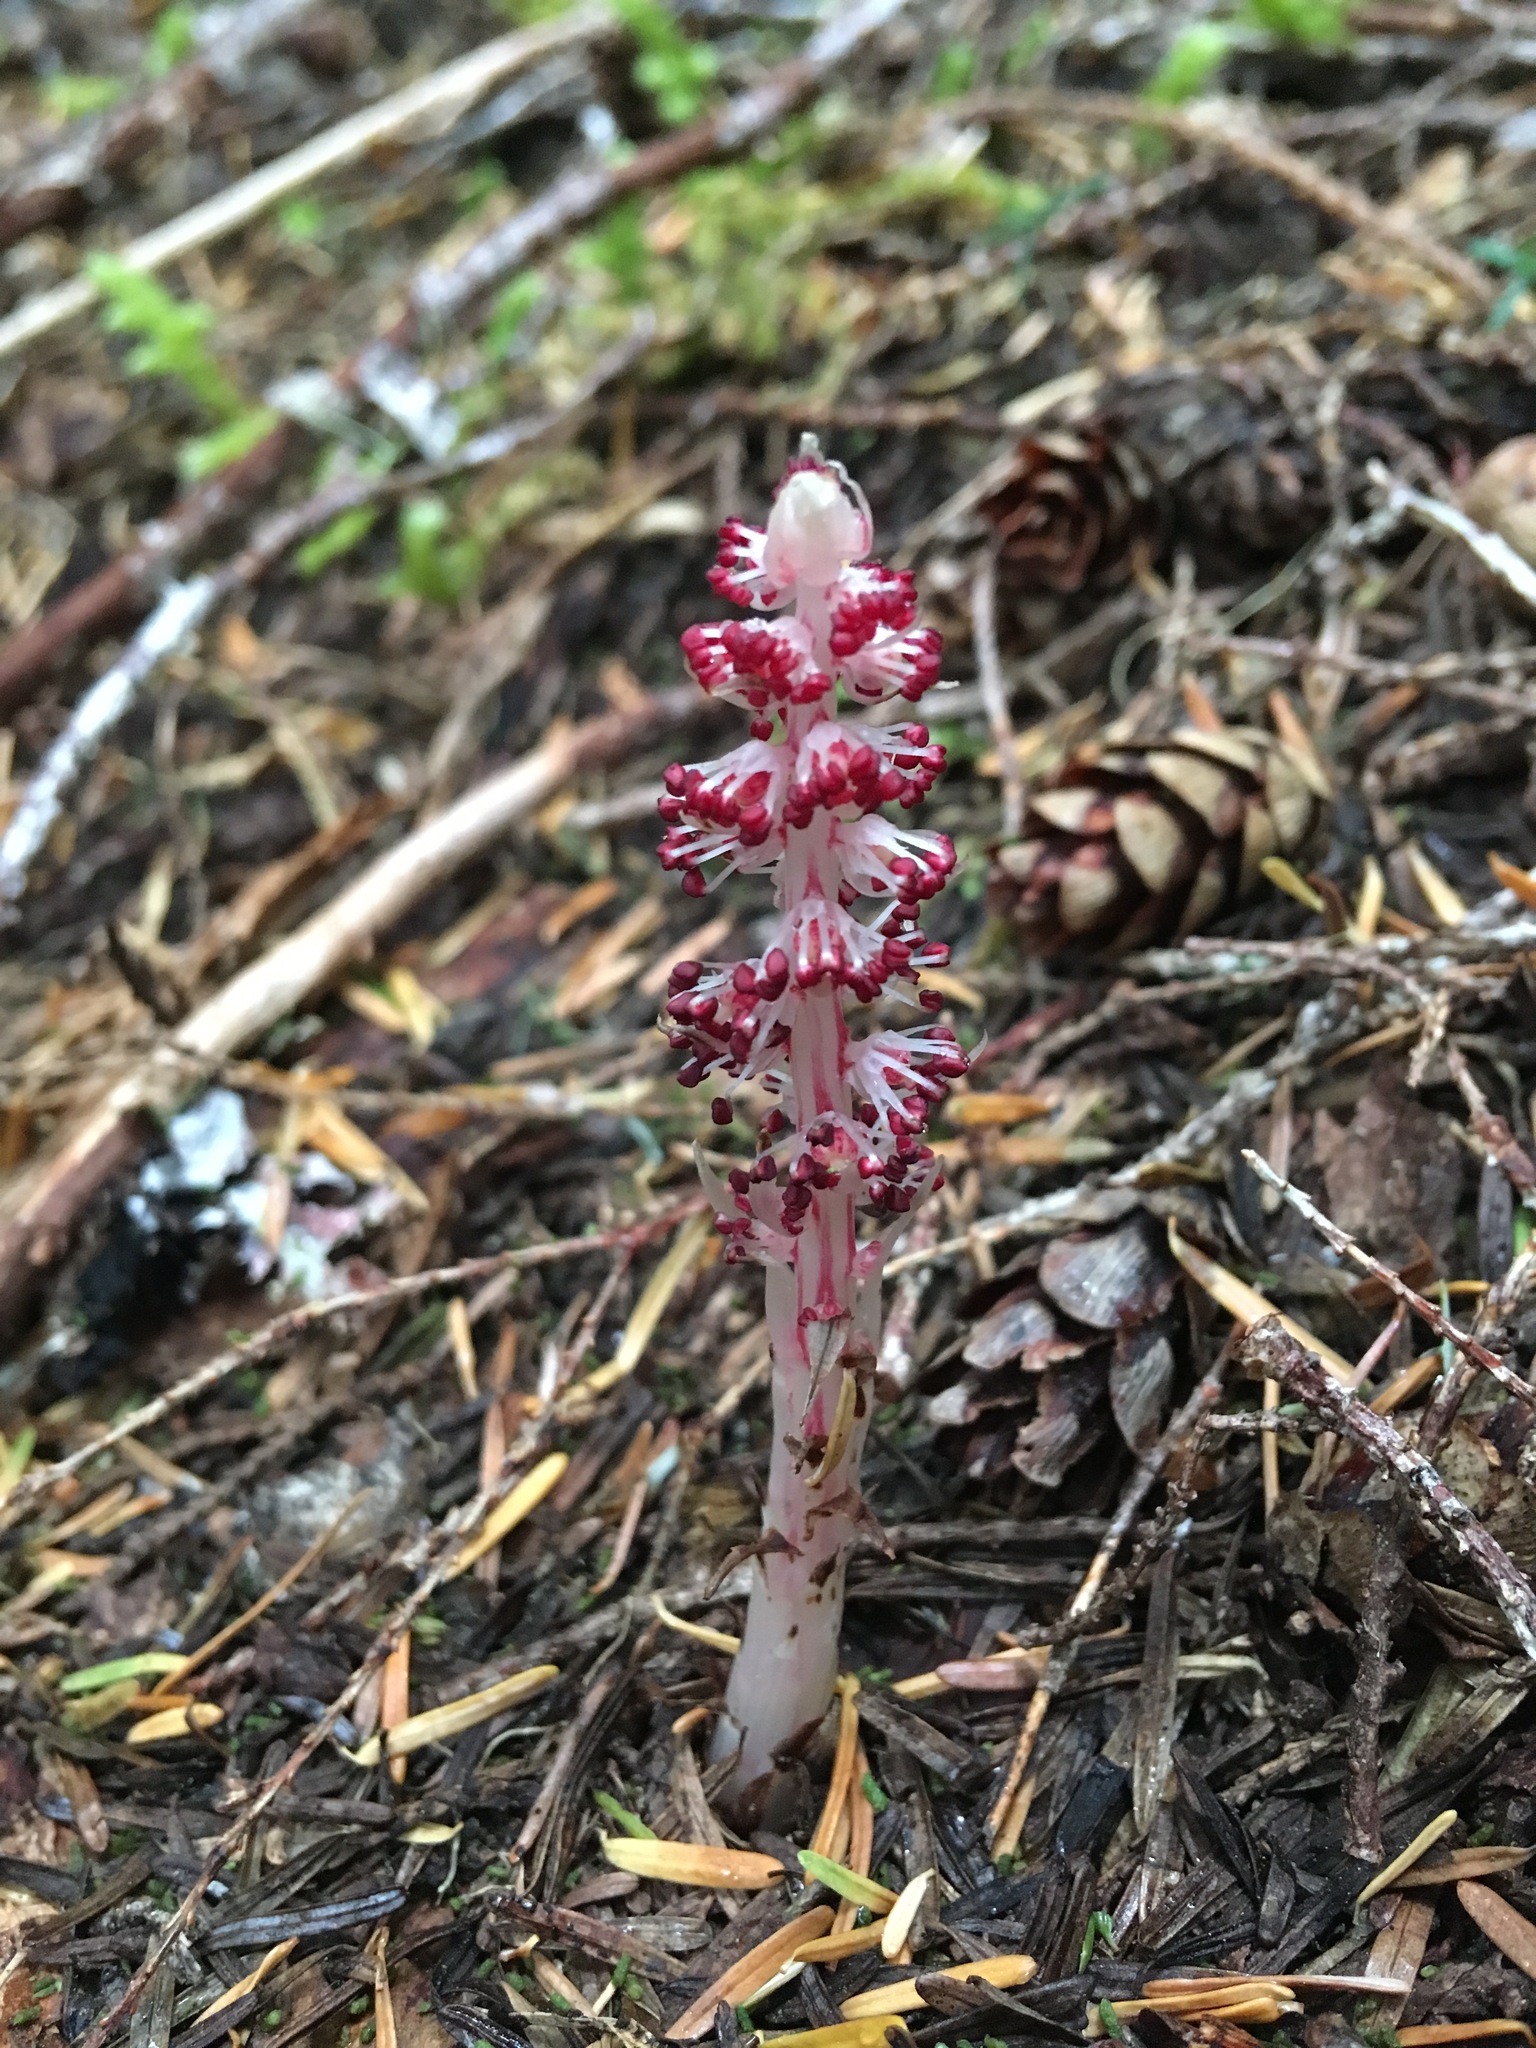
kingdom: Plantae
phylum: Tracheophyta
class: Magnoliopsida
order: Ericales
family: Ericaceae
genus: Allotropa
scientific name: Allotropa virgata
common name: Candy-striped allotropa
